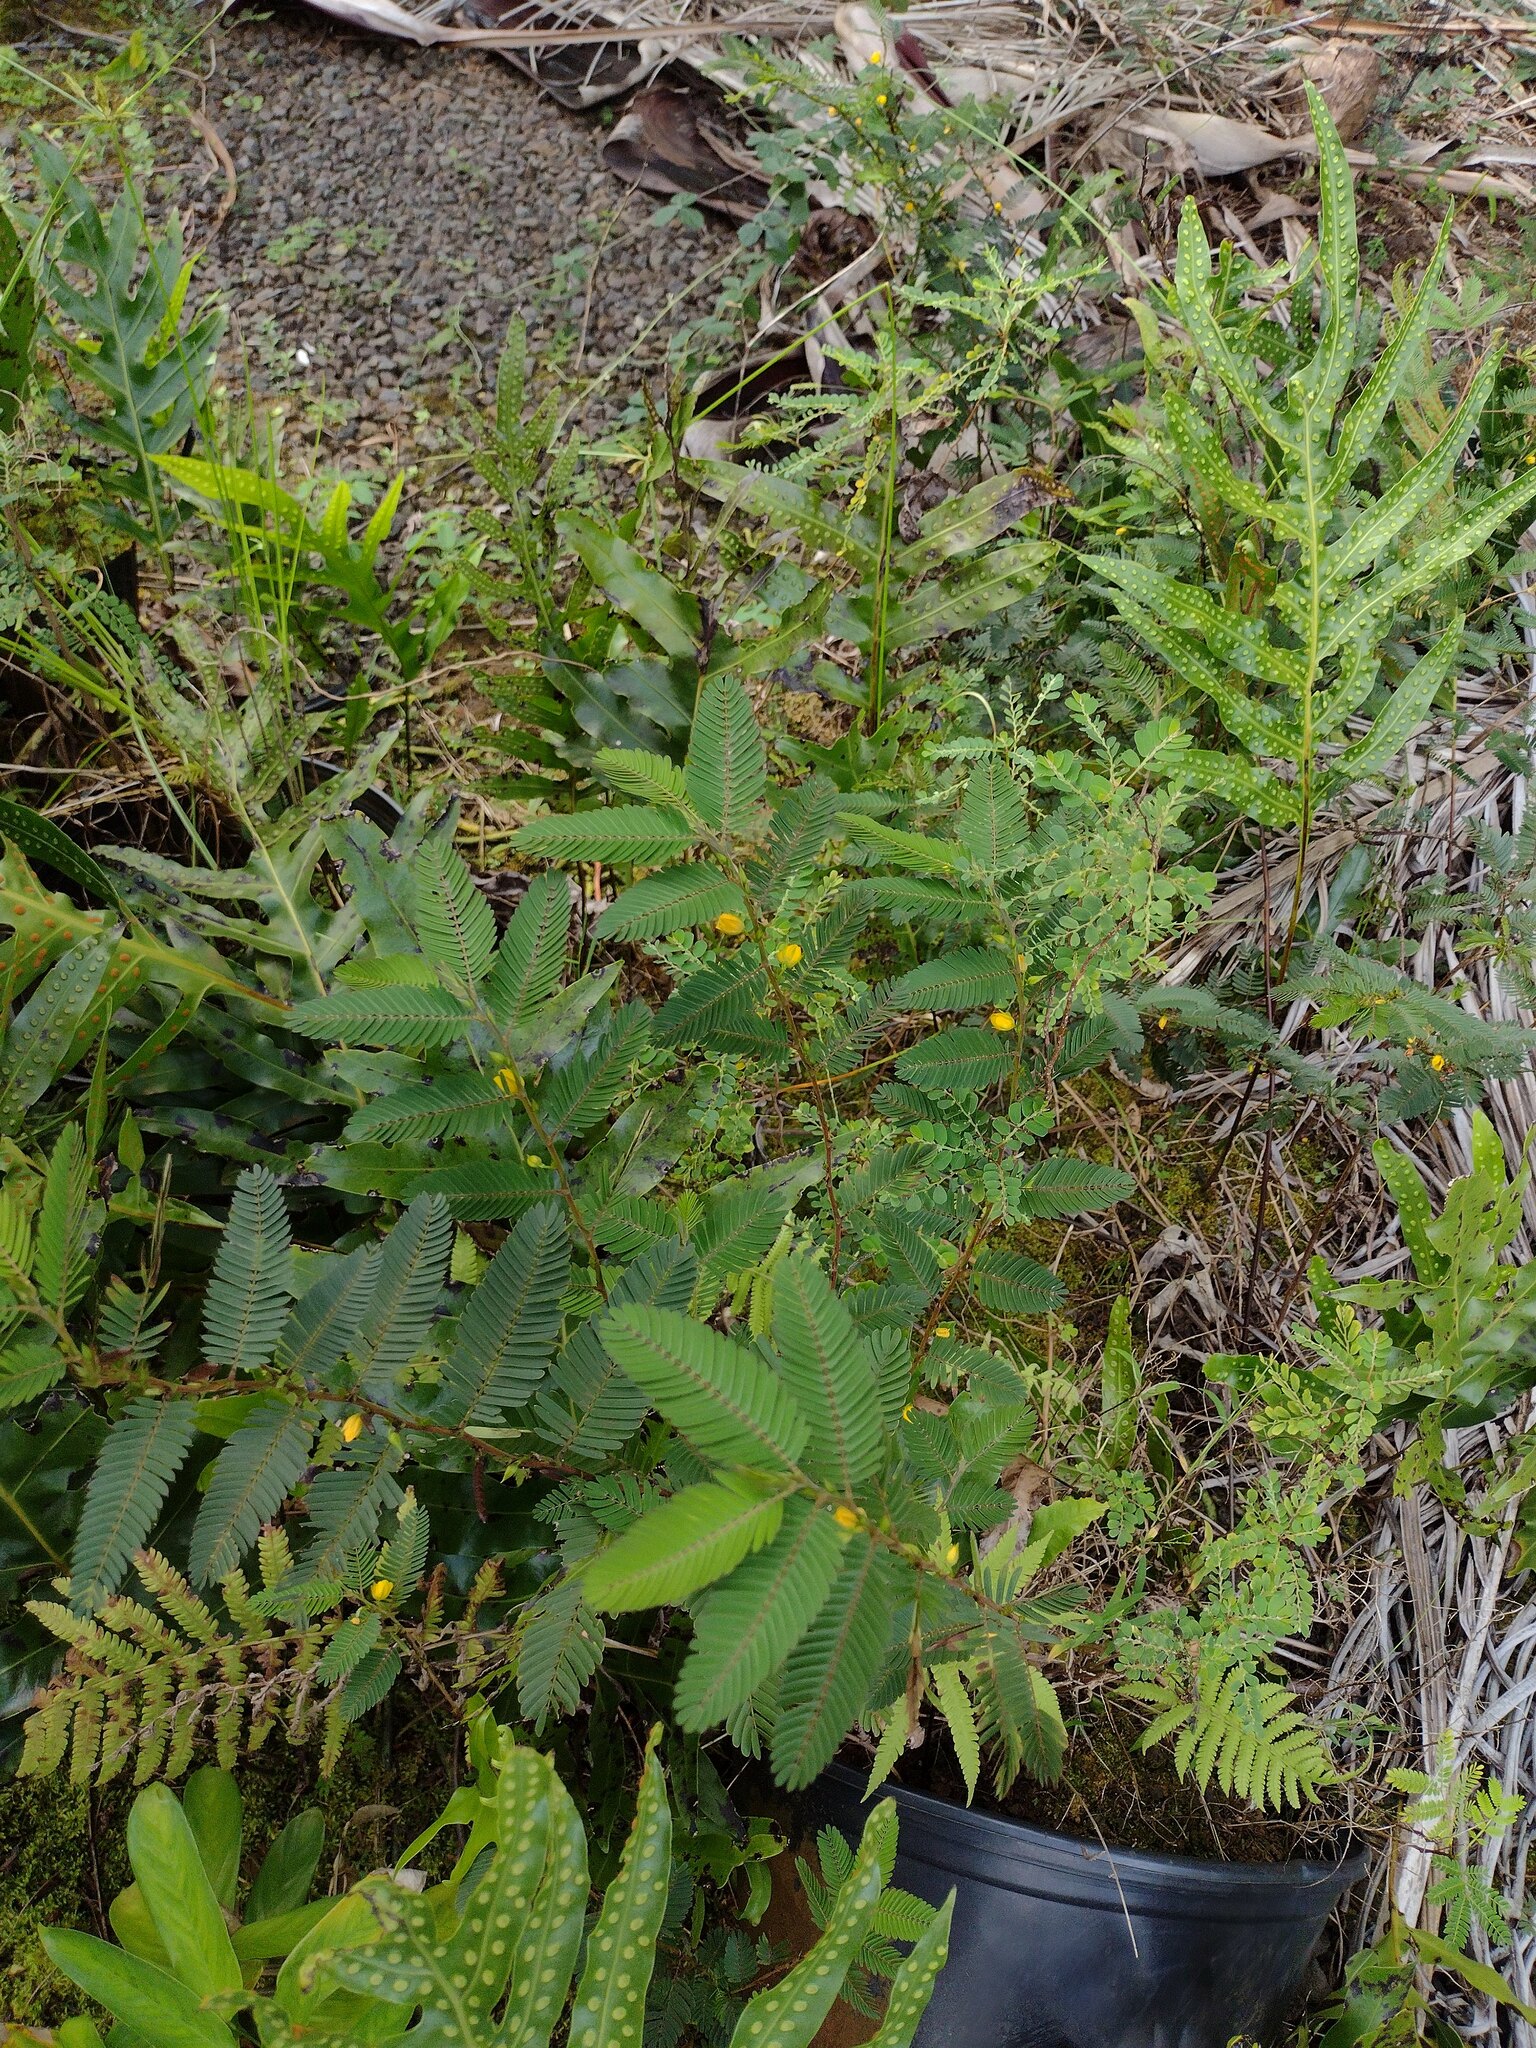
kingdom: Plantae
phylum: Tracheophyta
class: Magnoliopsida
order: Fabales
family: Fabaceae
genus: Chamaecrista
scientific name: Chamaecrista nictitans
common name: Sensitive cassia
